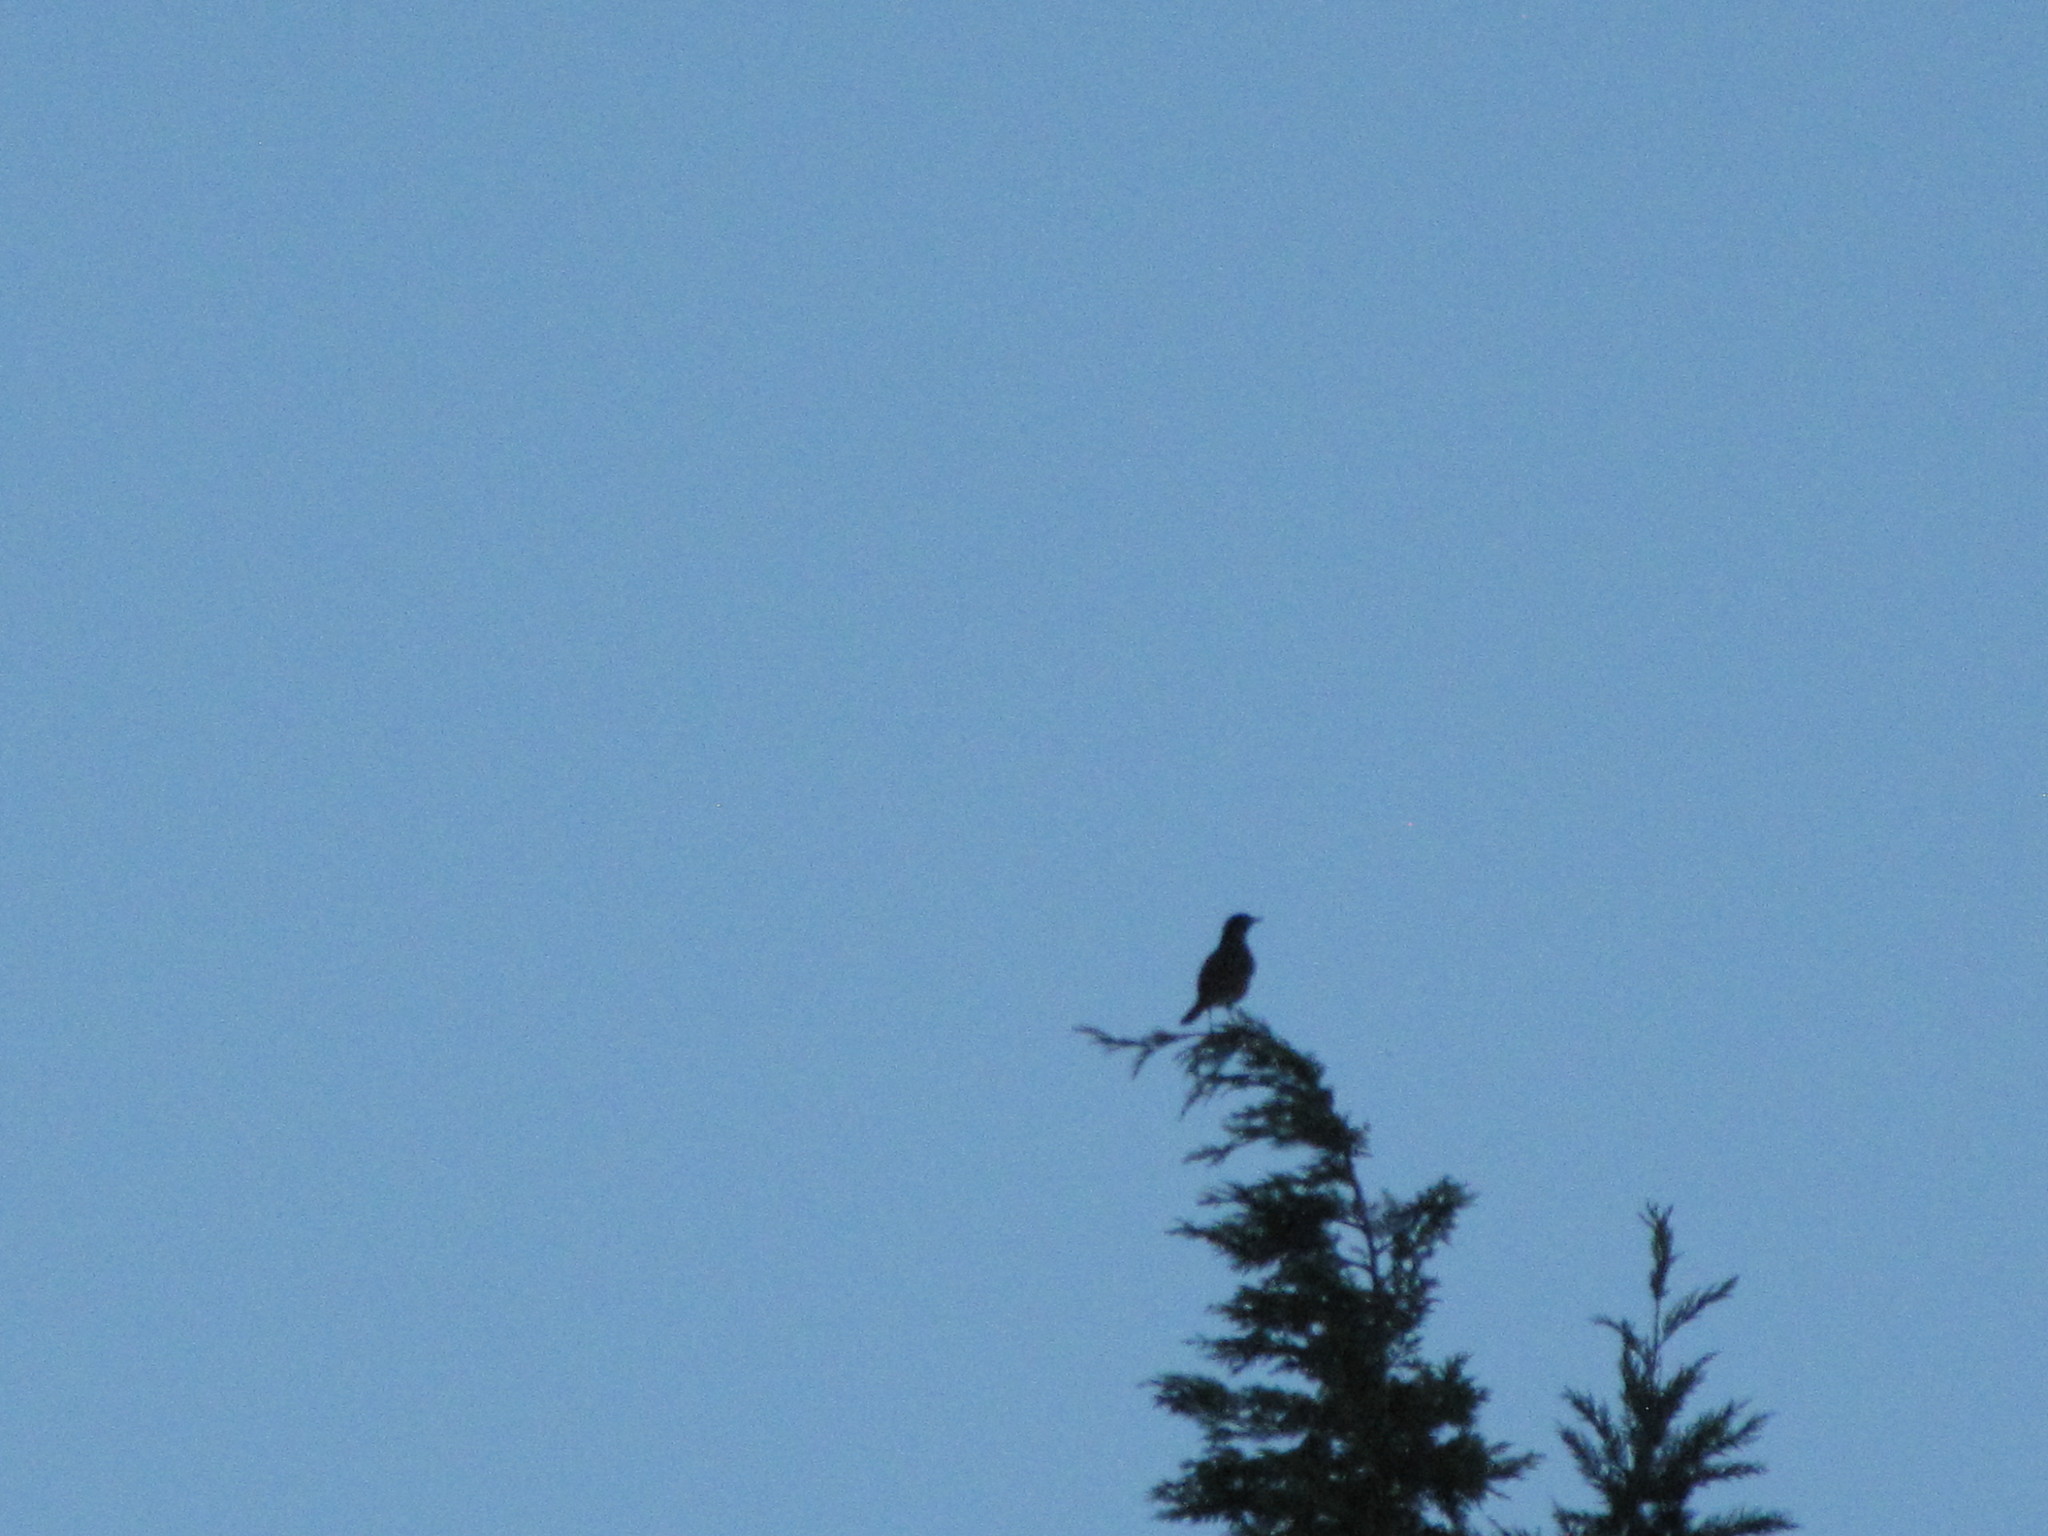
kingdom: Animalia
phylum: Chordata
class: Aves
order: Passeriformes
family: Turdidae
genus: Turdus
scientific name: Turdus migratorius
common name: American robin
